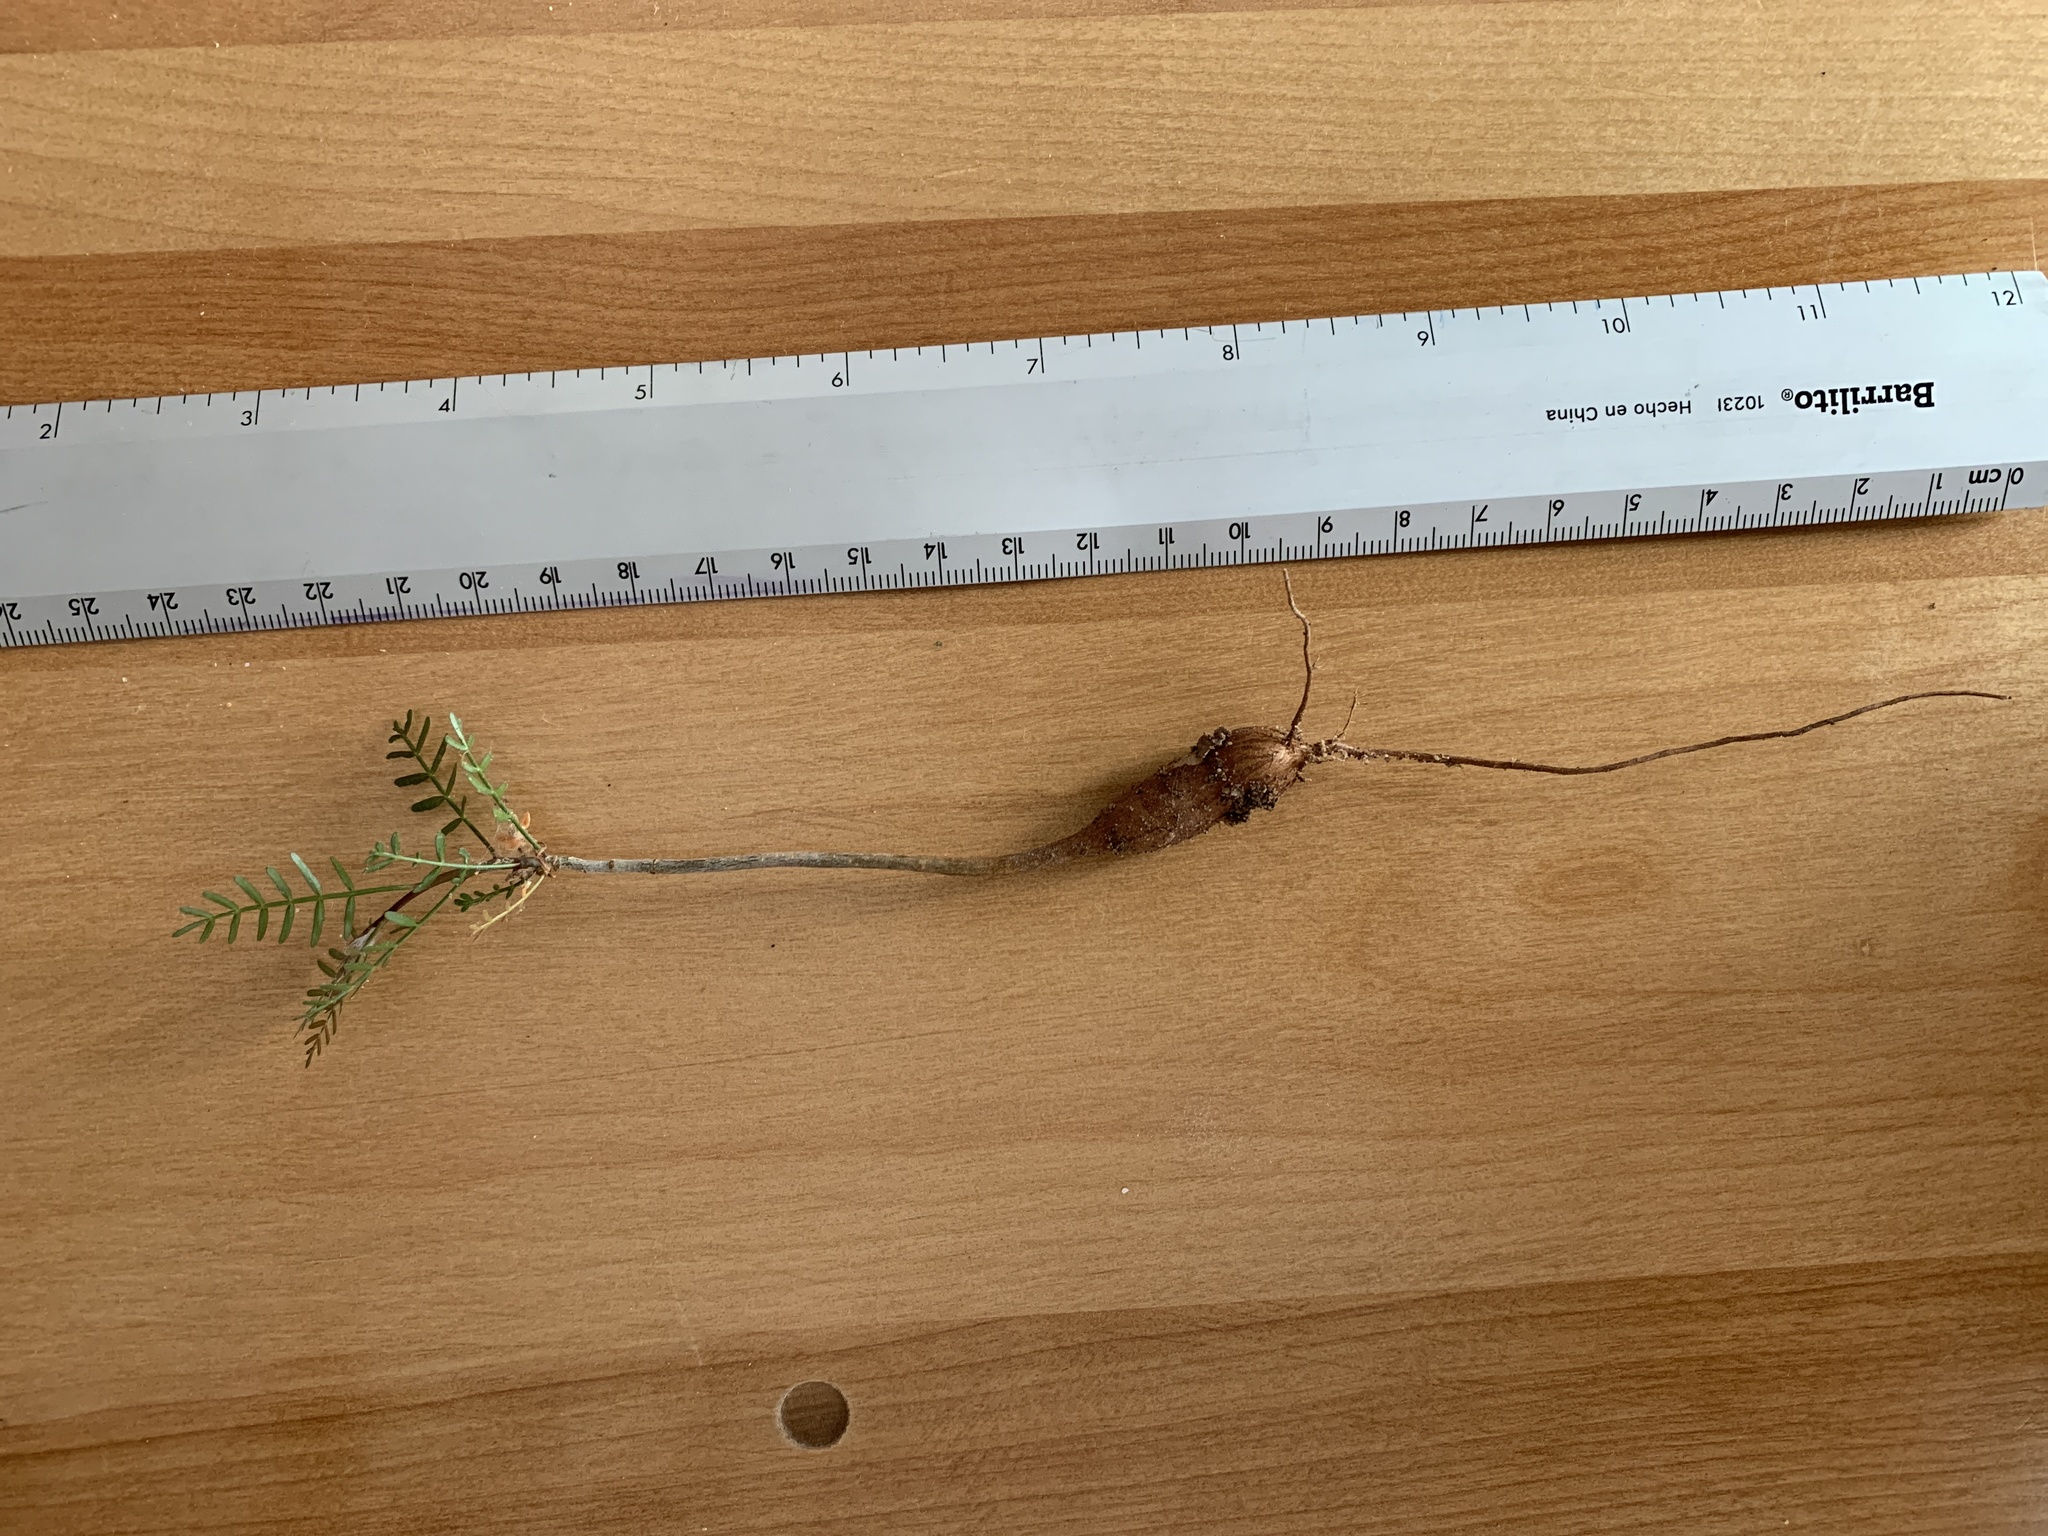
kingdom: Plantae
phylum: Tracheophyta
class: Magnoliopsida
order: Sapindales
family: Burseraceae
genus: Bursera
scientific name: Bursera microphylla
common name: Elephant tree
